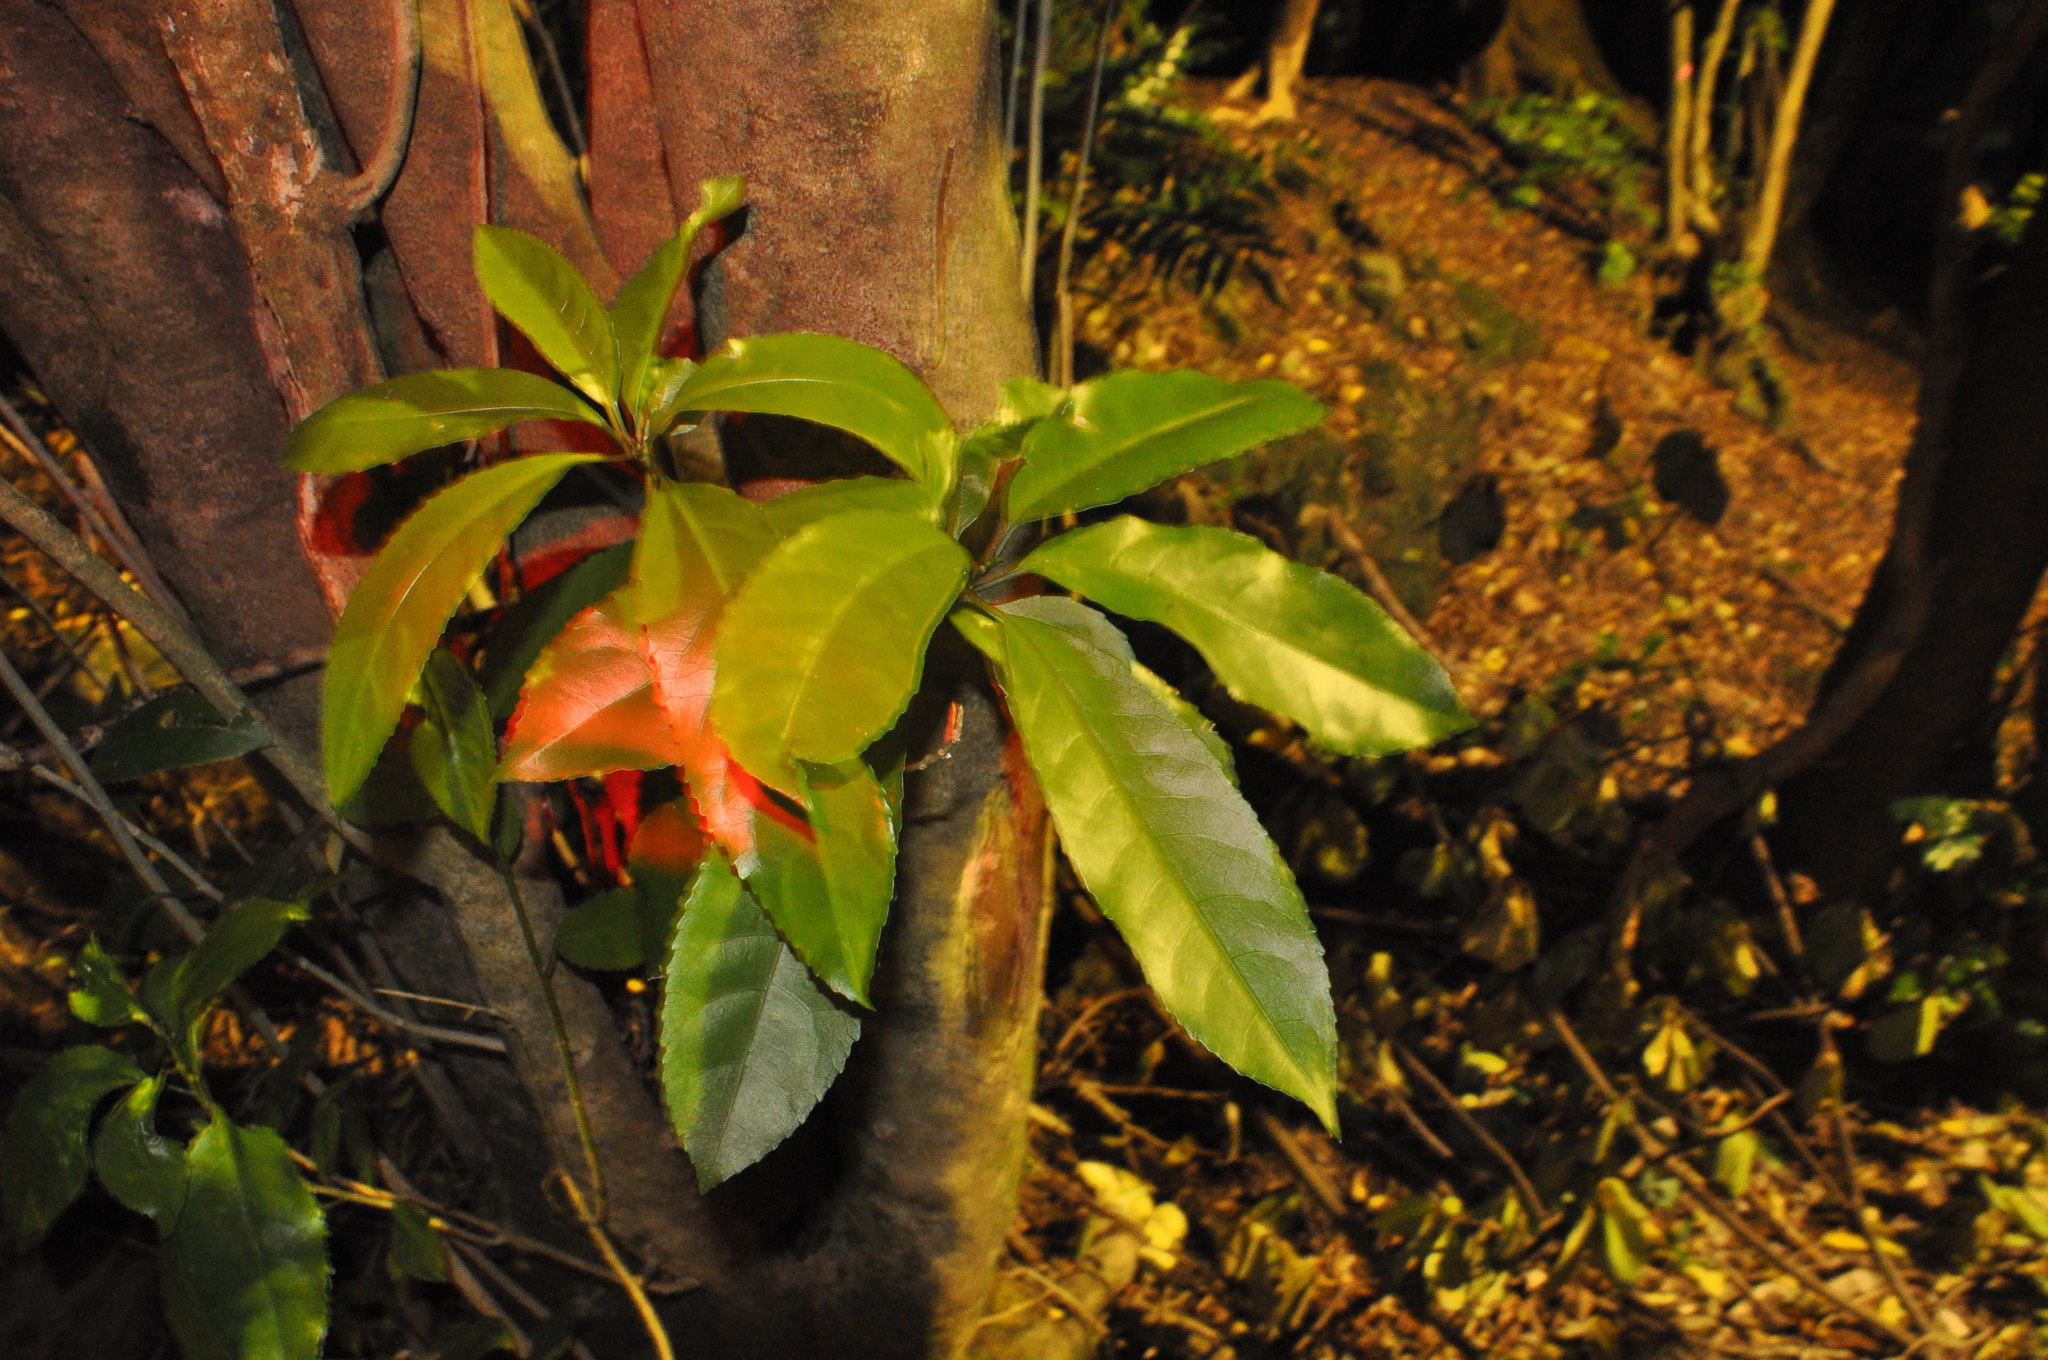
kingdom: Plantae
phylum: Tracheophyta
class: Magnoliopsida
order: Malpighiales
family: Violaceae
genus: Melicytus
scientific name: Melicytus ramiflorus
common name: Mahoe
